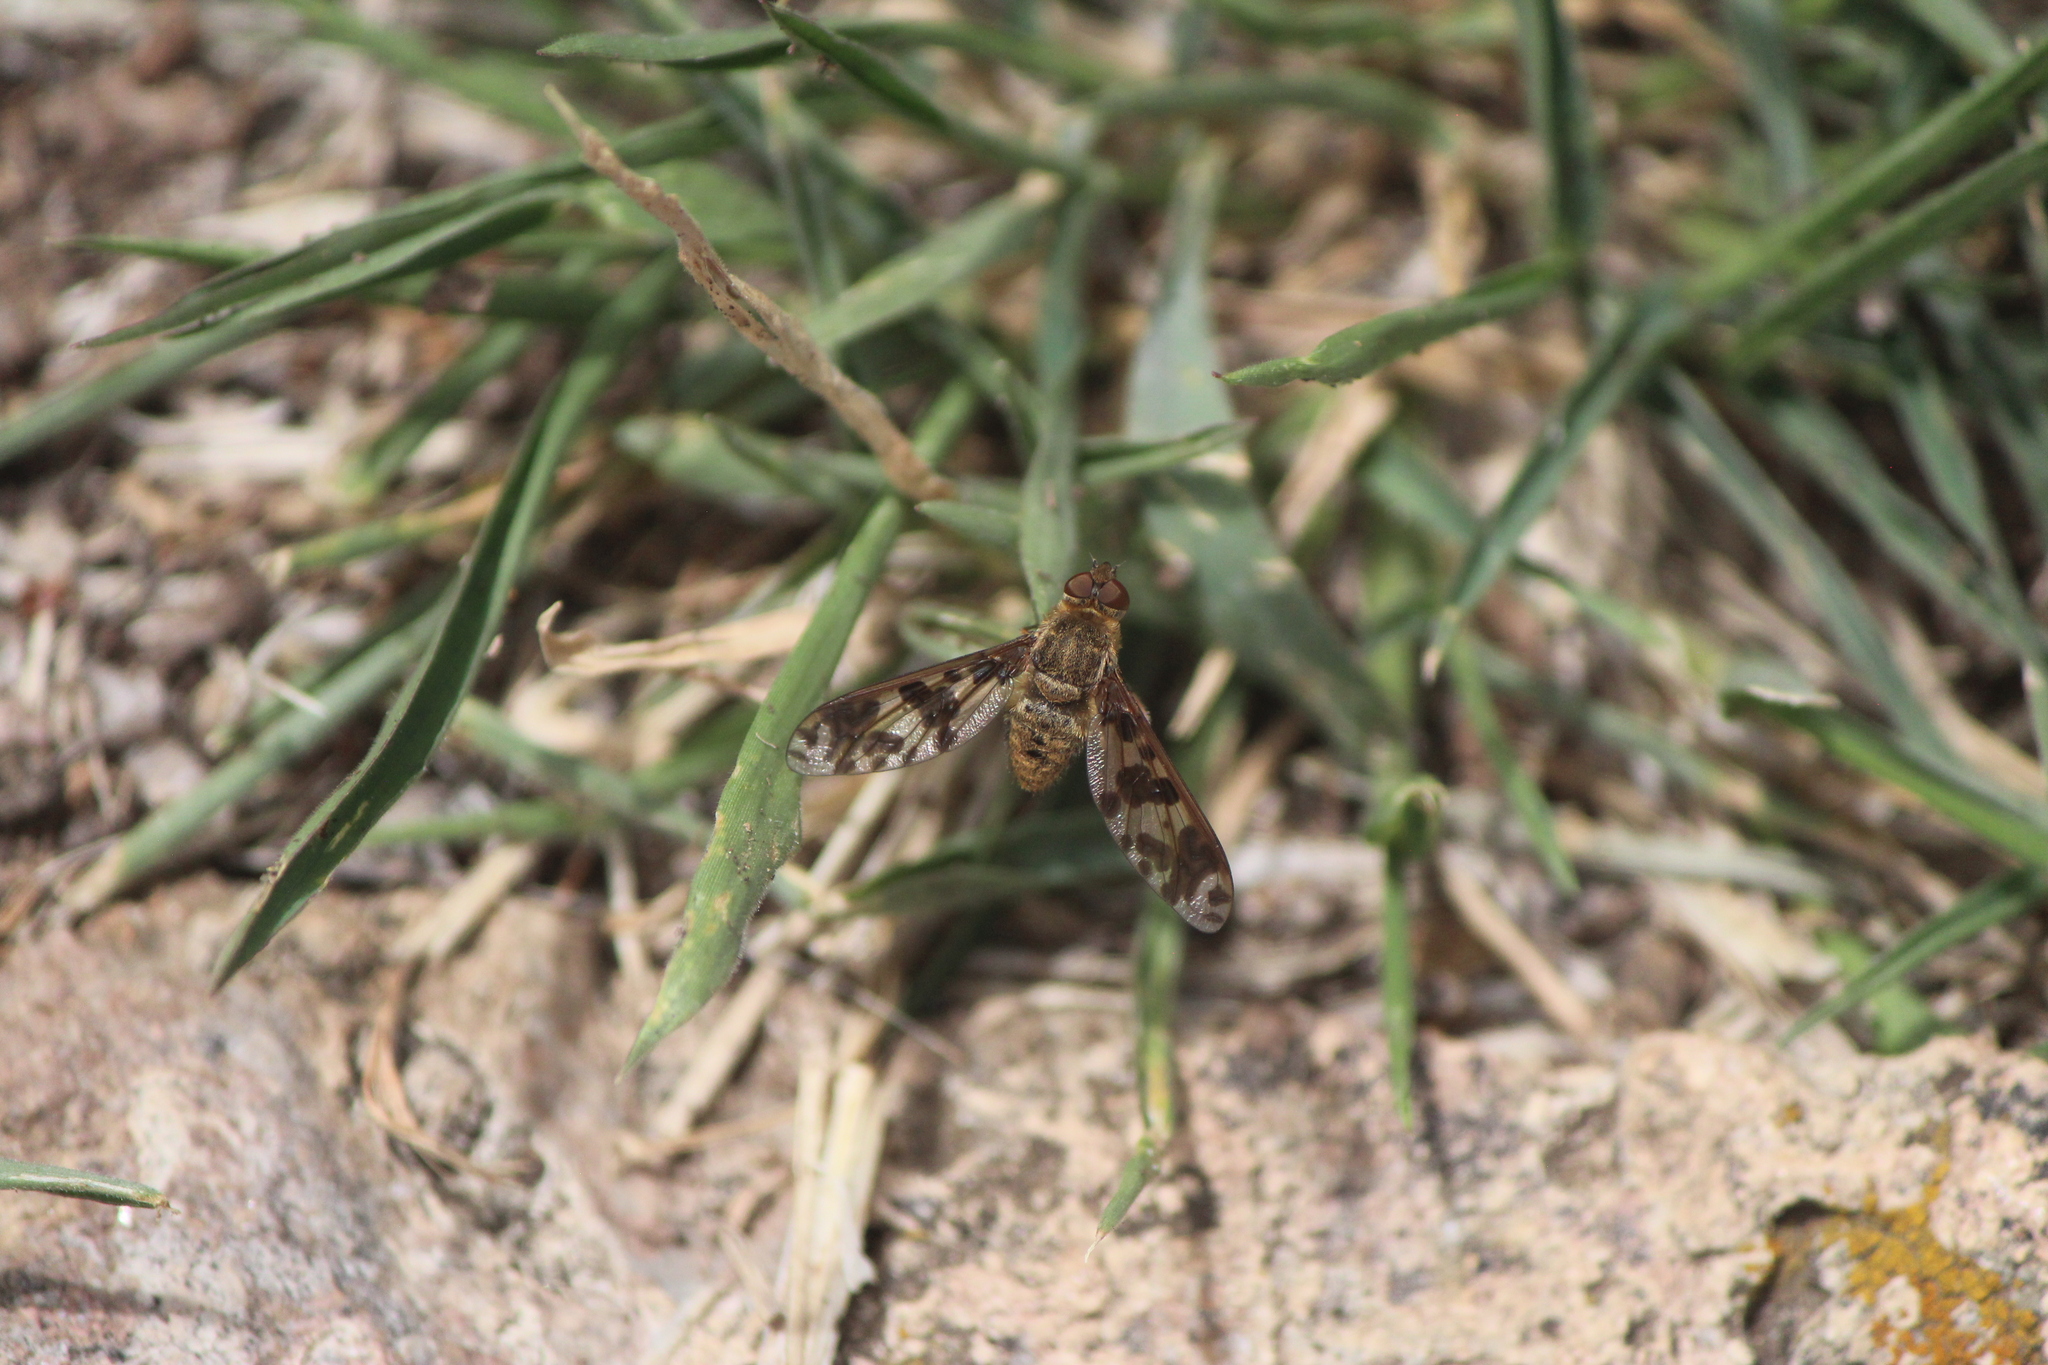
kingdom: Animalia
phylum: Arthropoda
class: Insecta
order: Diptera
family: Bombyliidae
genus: Dipalta
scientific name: Dipalta serpentina
